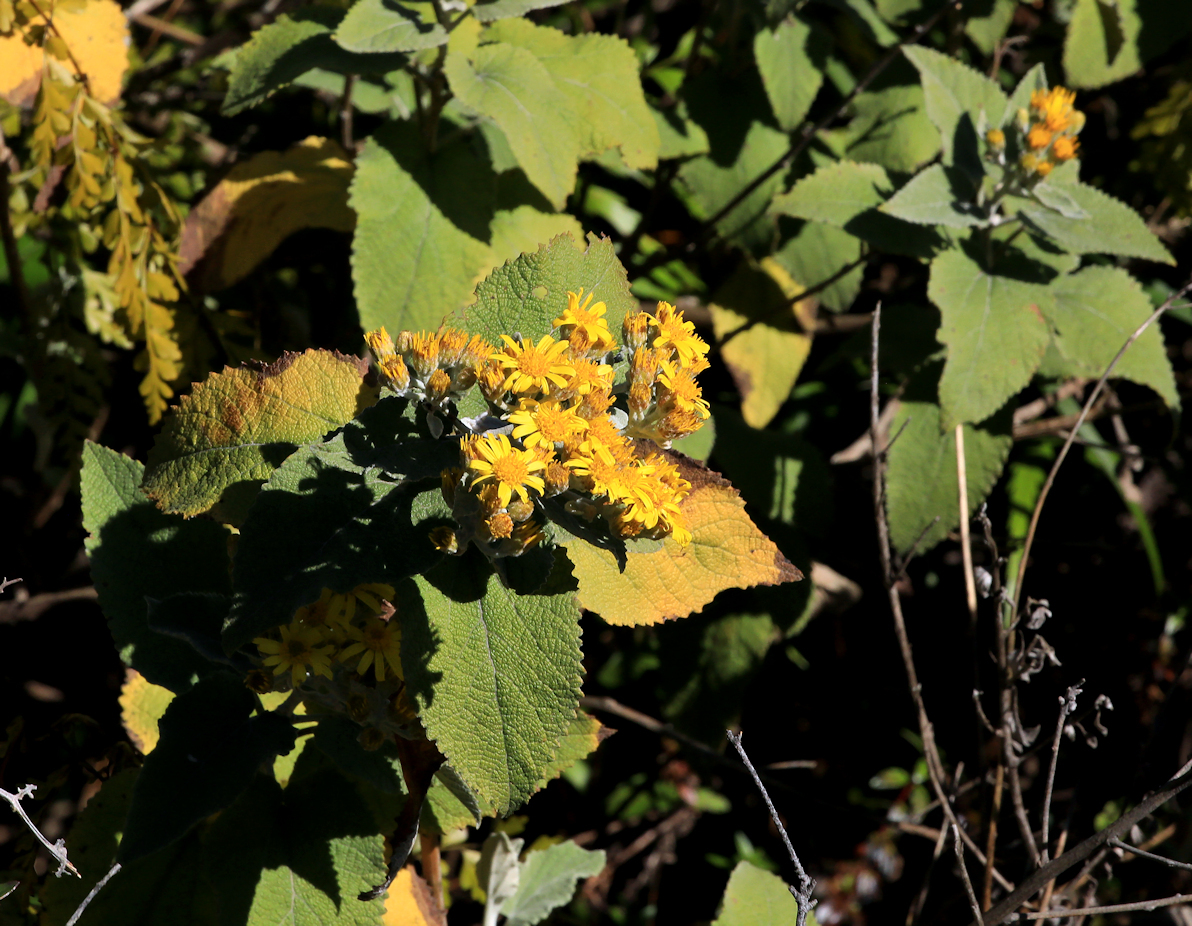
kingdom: Plantae
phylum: Tracheophyta
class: Magnoliopsida
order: Asterales
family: Asteraceae
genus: Anisopappus
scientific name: Anisopappus junodii
